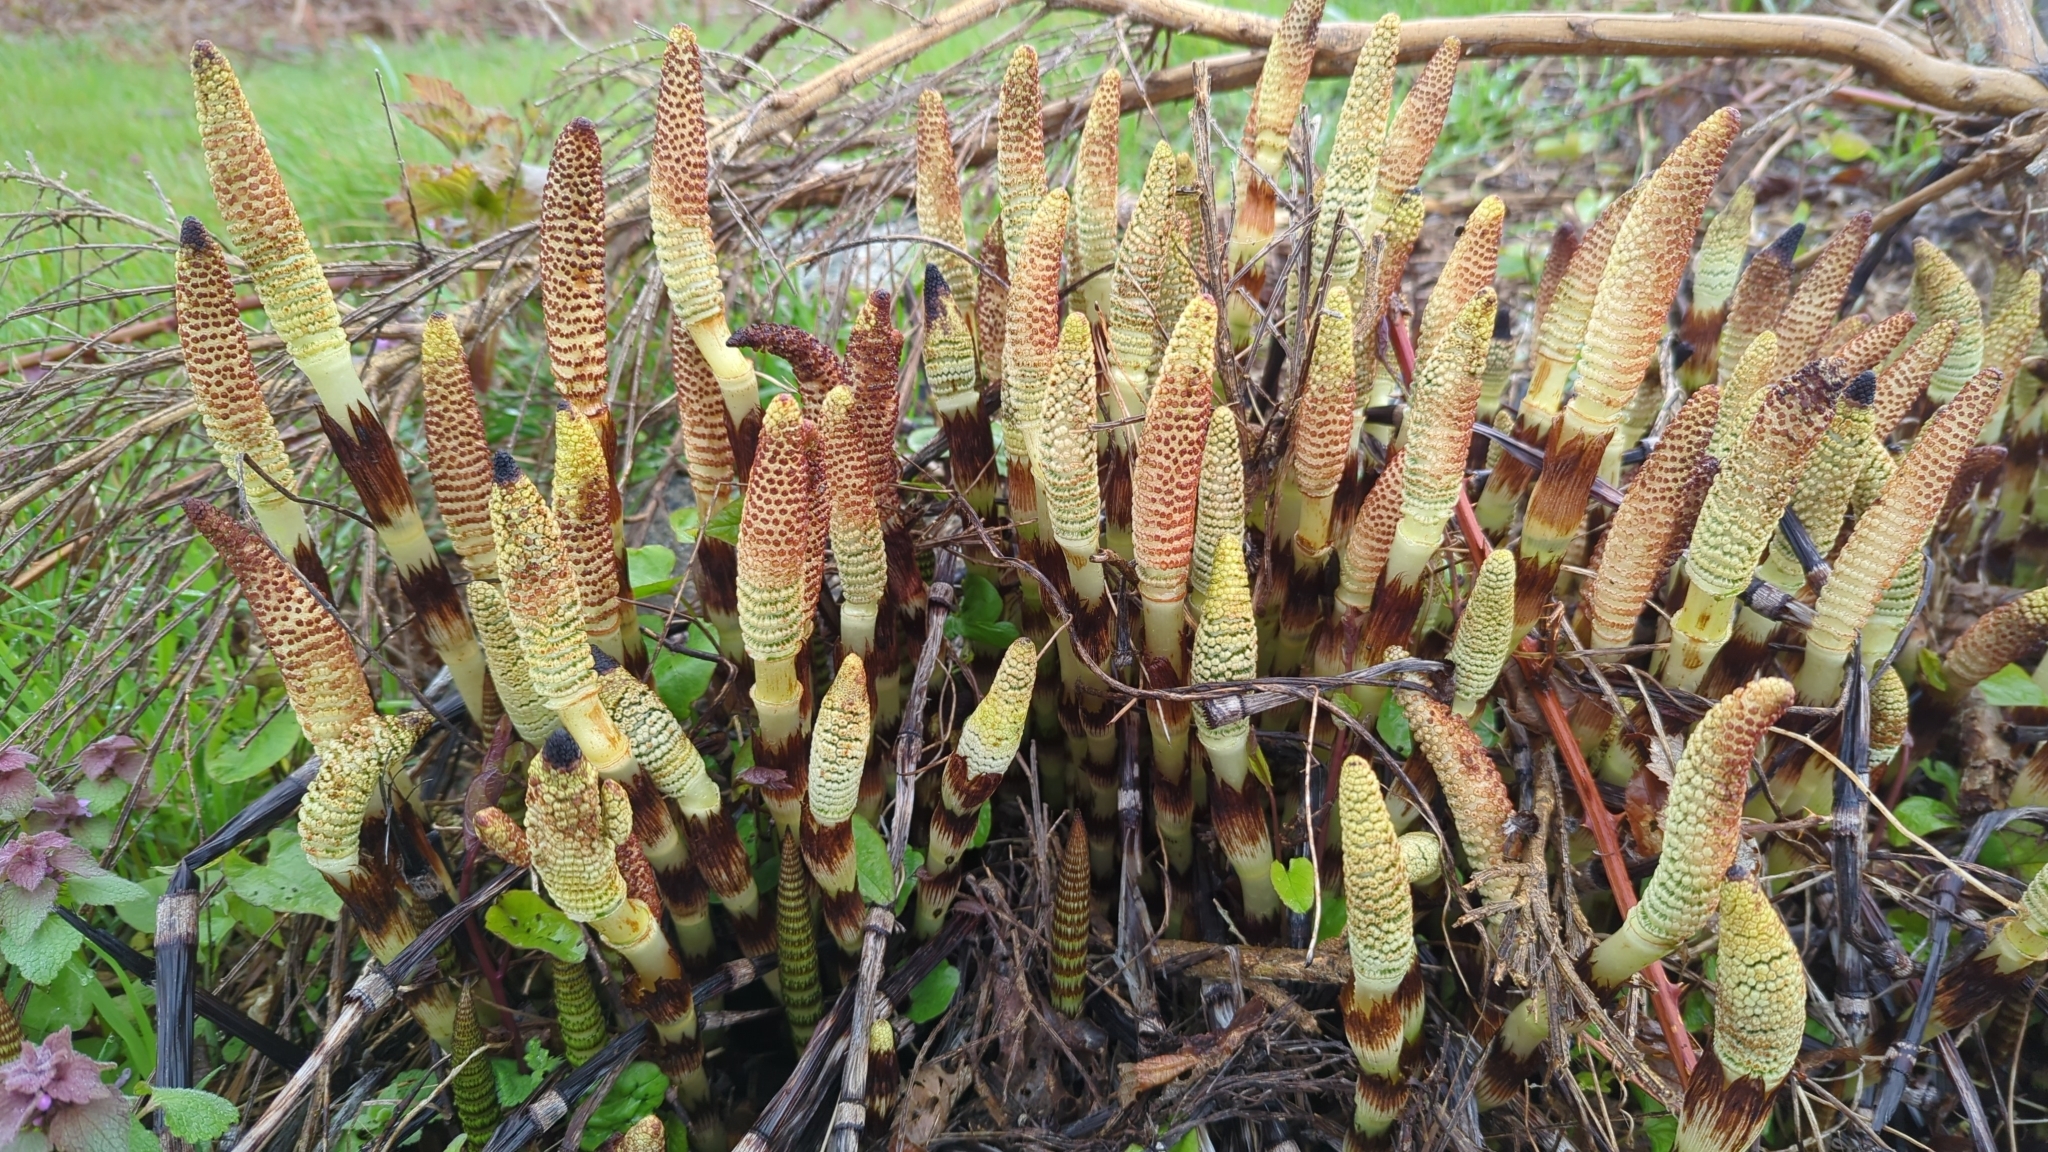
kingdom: Plantae
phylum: Tracheophyta
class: Polypodiopsida
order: Equisetales
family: Equisetaceae
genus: Equisetum
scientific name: Equisetum braunii
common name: Braun's horsetail
